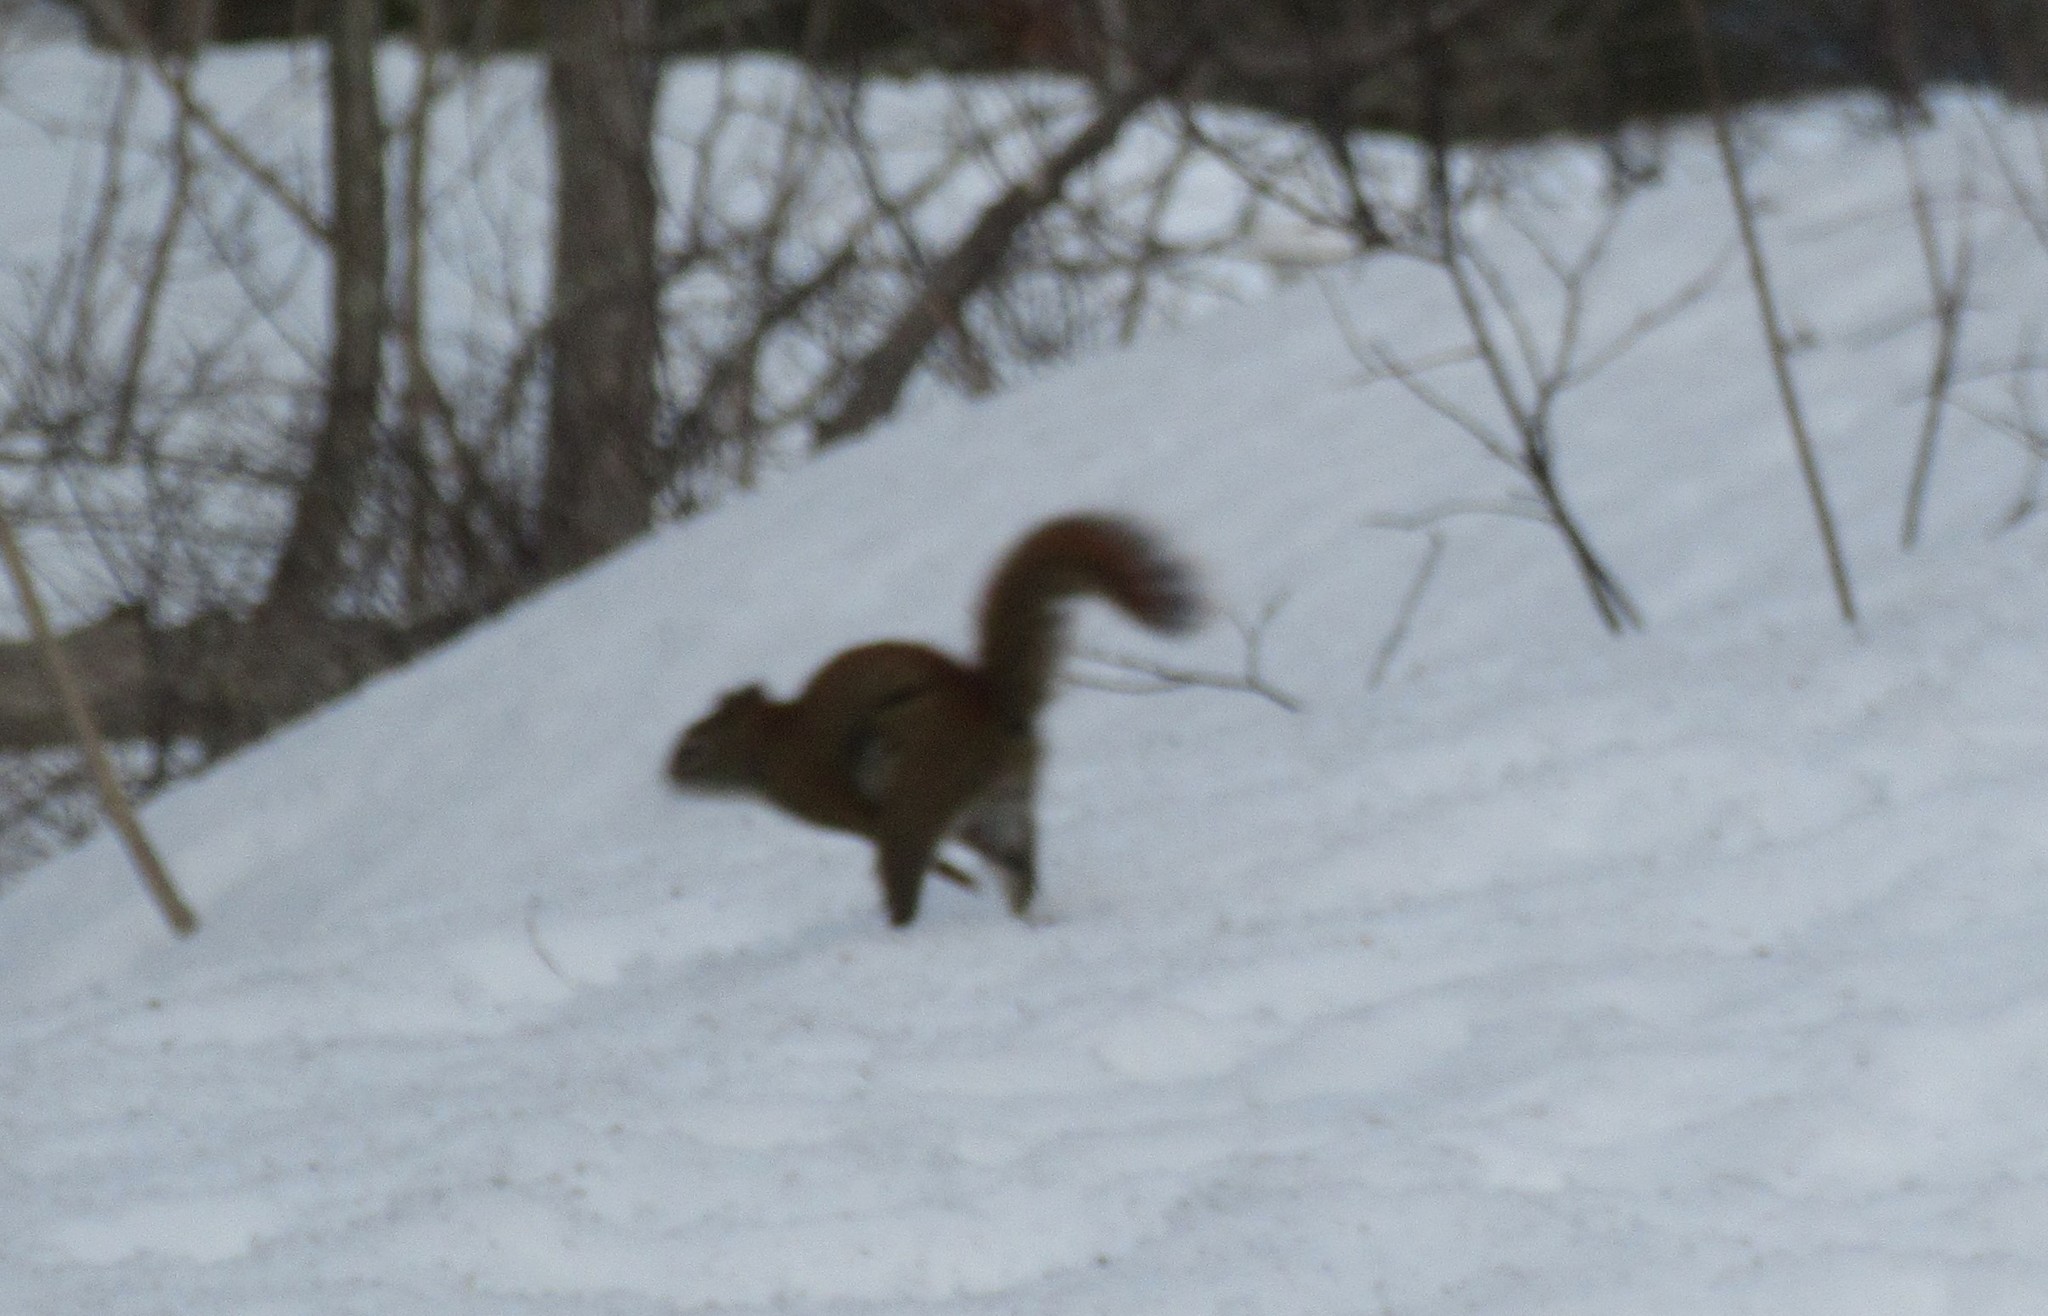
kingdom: Animalia
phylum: Chordata
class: Mammalia
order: Rodentia
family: Sciuridae
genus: Tamiasciurus
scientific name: Tamiasciurus hudsonicus
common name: Red squirrel
